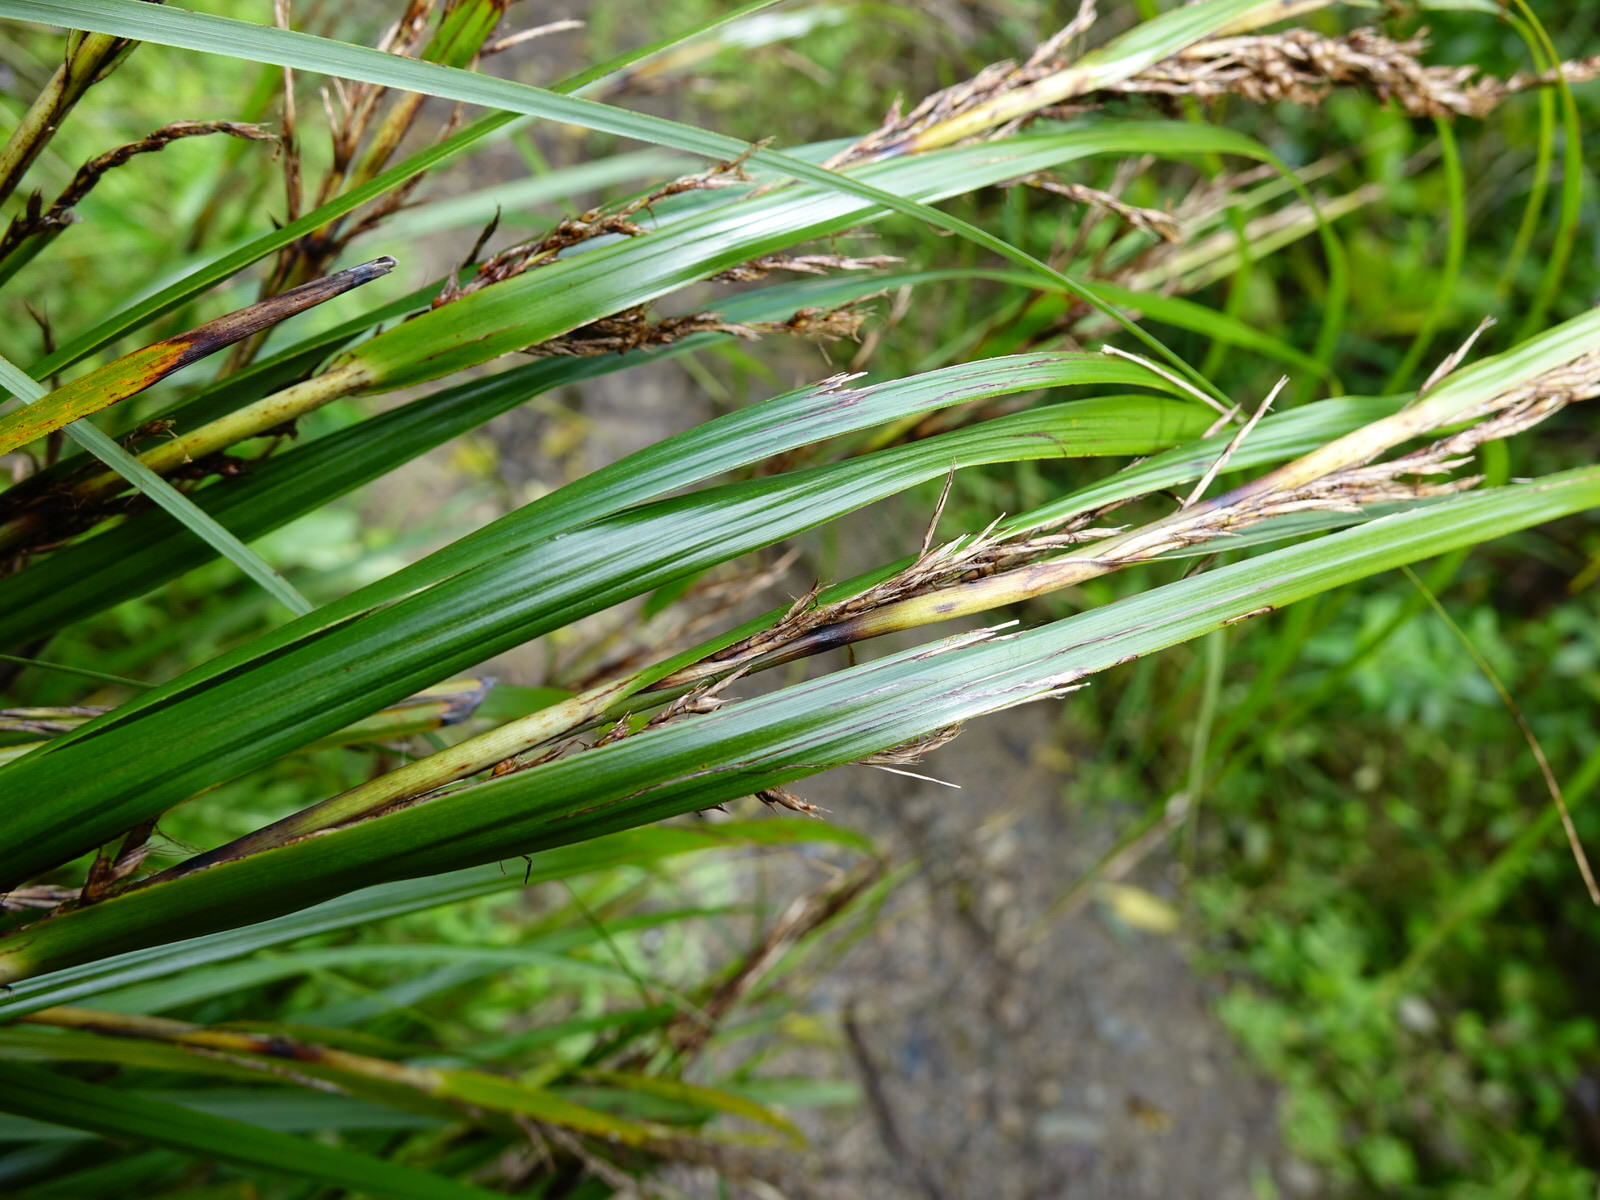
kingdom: Plantae
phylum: Tracheophyta
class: Liliopsida
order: Poales
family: Cyperaceae
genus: Gahnia
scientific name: Gahnia lacera
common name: Sawsedge
